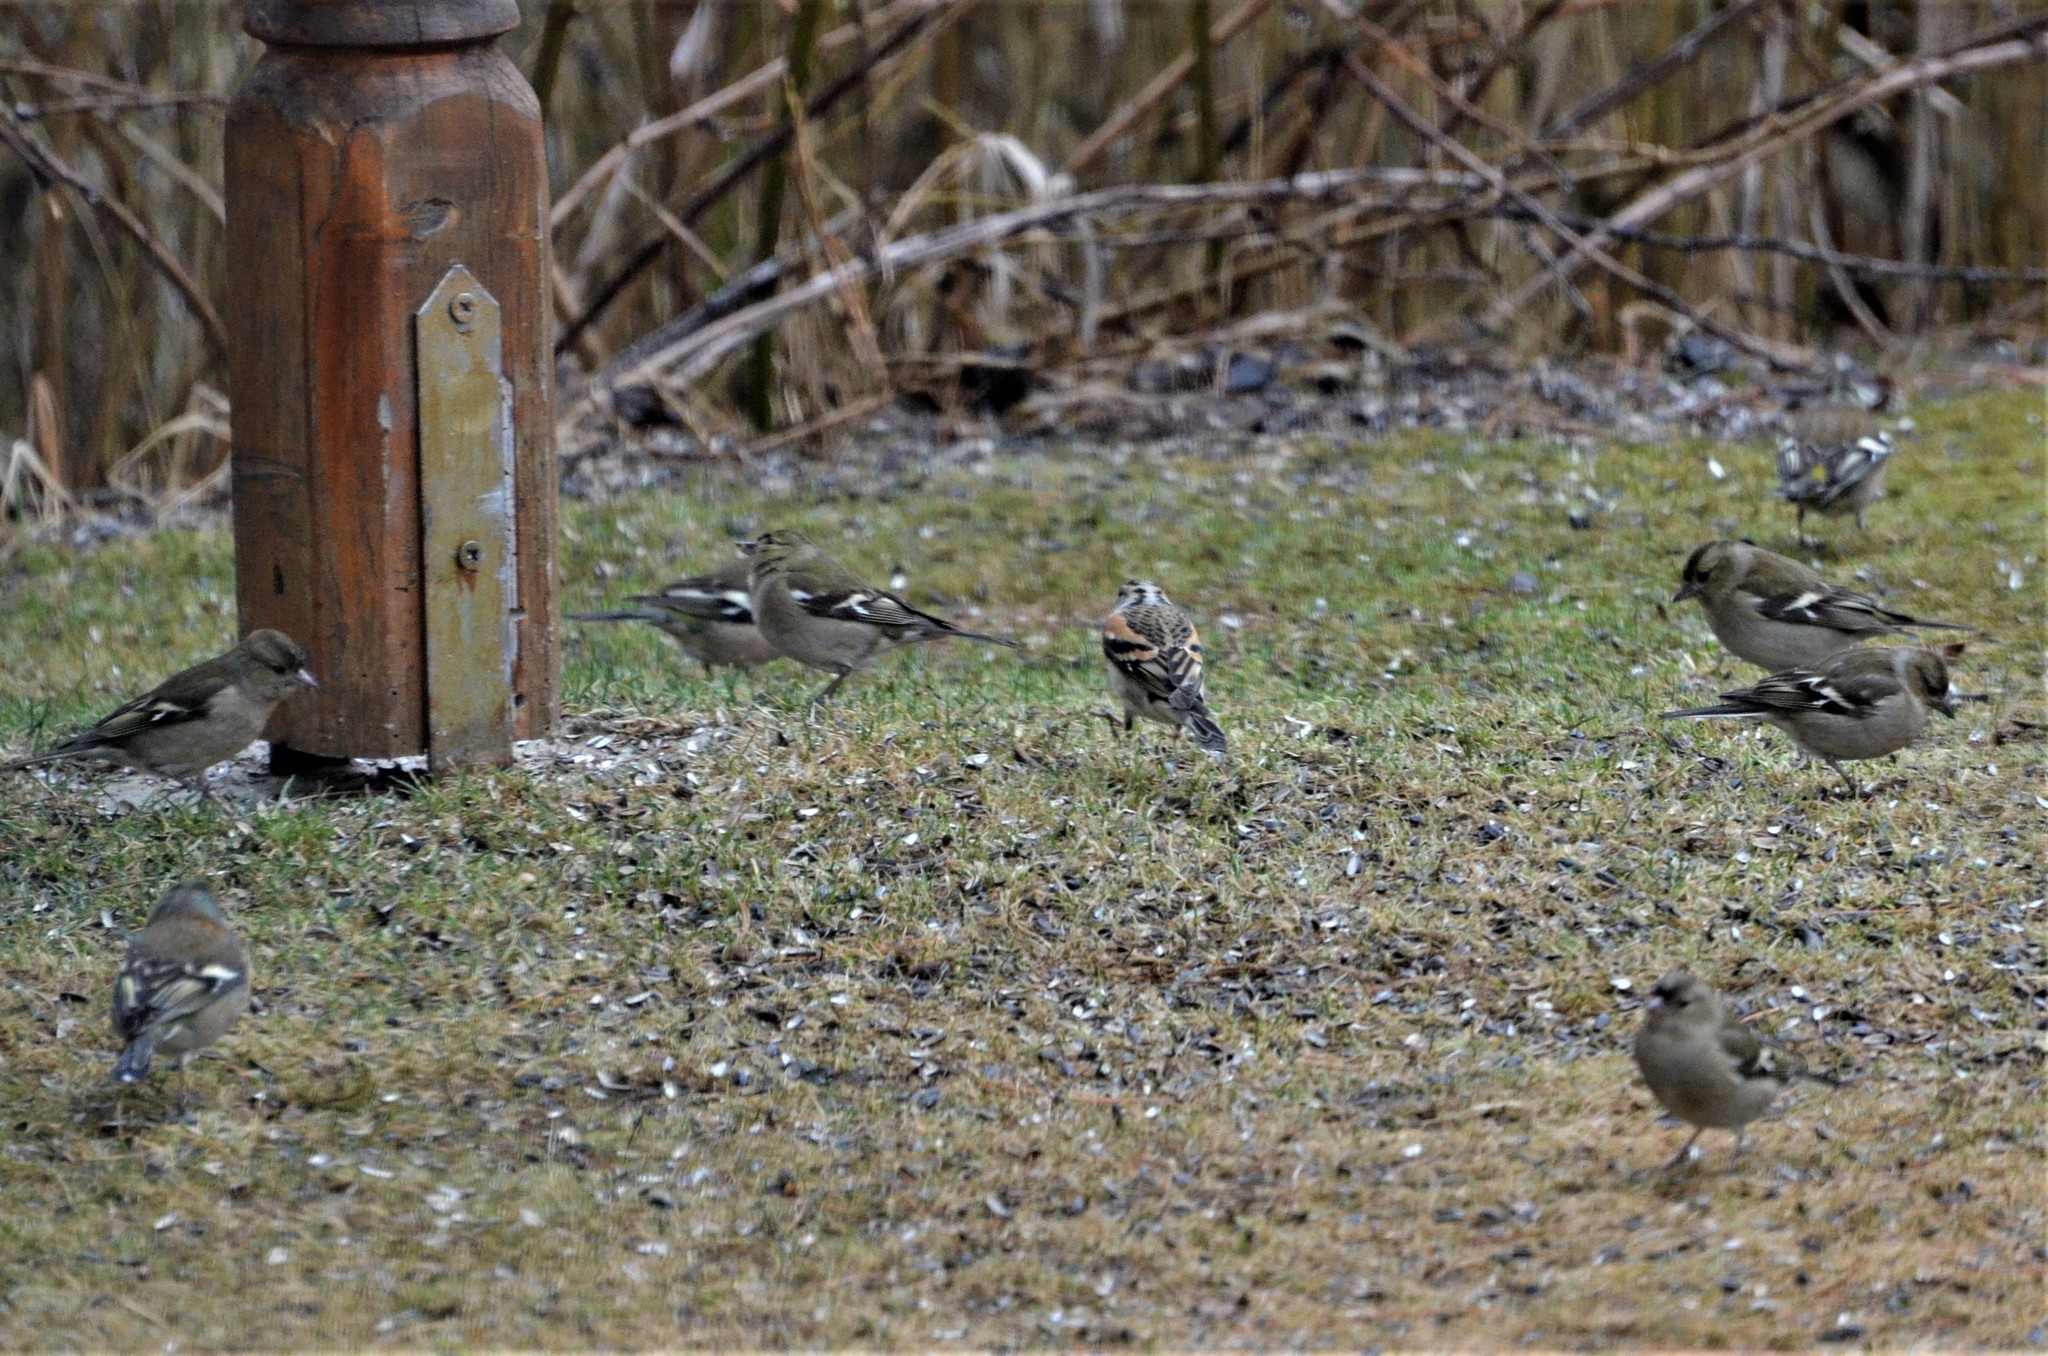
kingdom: Animalia
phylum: Chordata
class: Aves
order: Passeriformes
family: Fringillidae
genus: Fringilla
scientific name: Fringilla coelebs
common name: Common chaffinch
